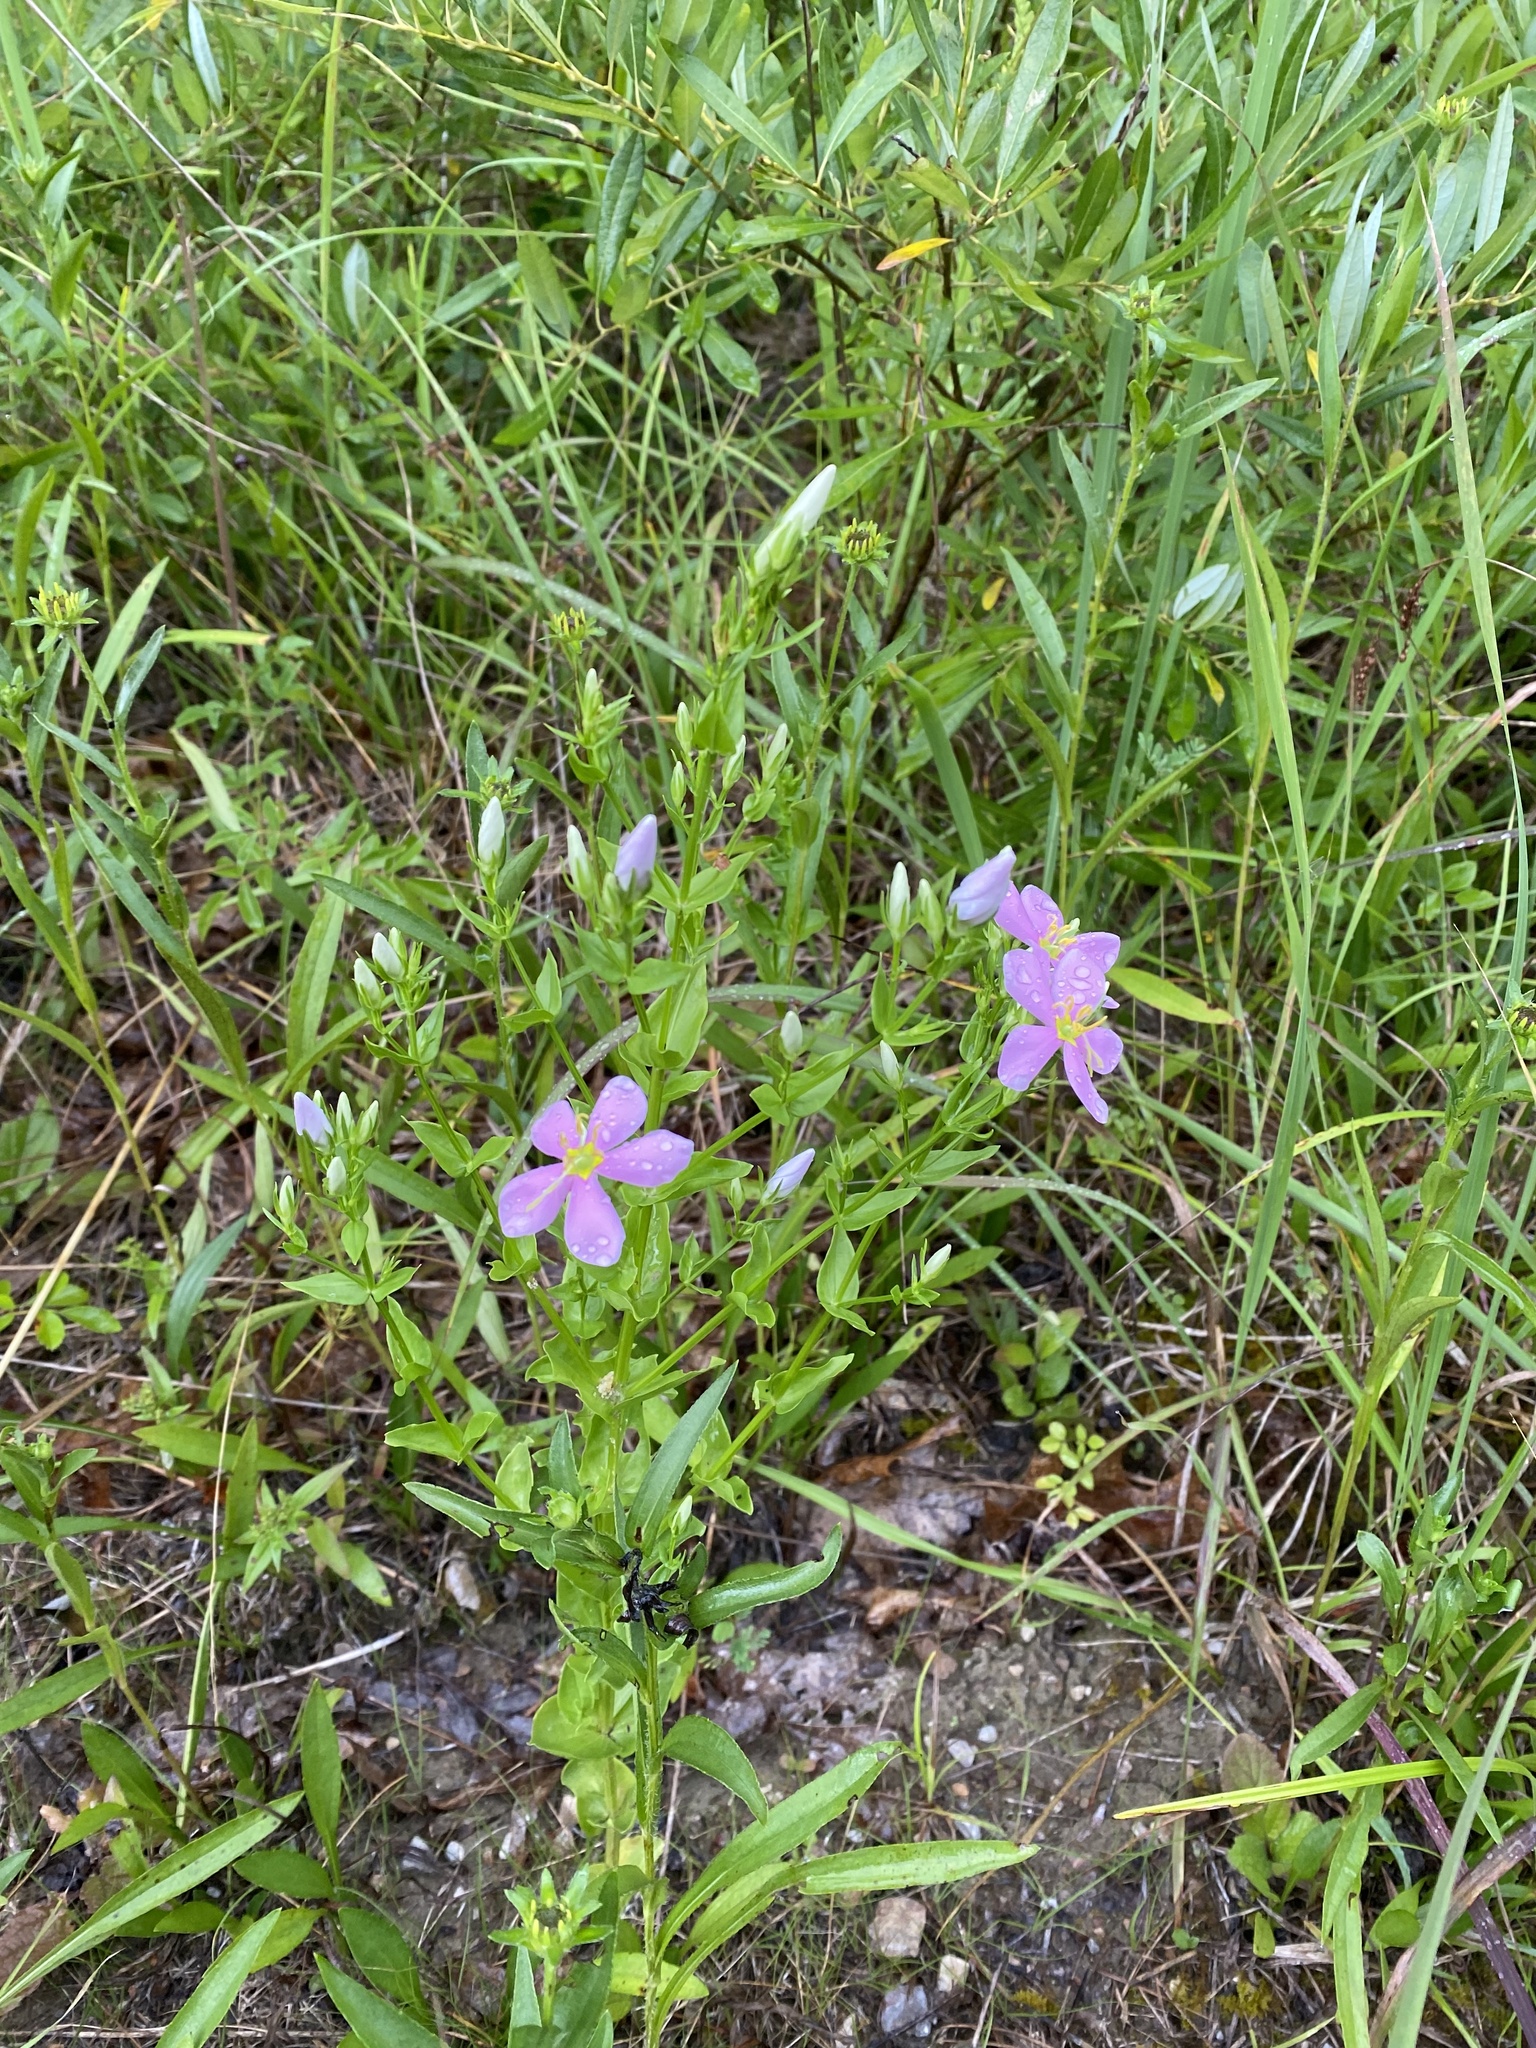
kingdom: Plantae
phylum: Tracheophyta
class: Magnoliopsida
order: Gentianales
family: Gentianaceae
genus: Sabatia
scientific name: Sabatia angularis
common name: Rose-pink
